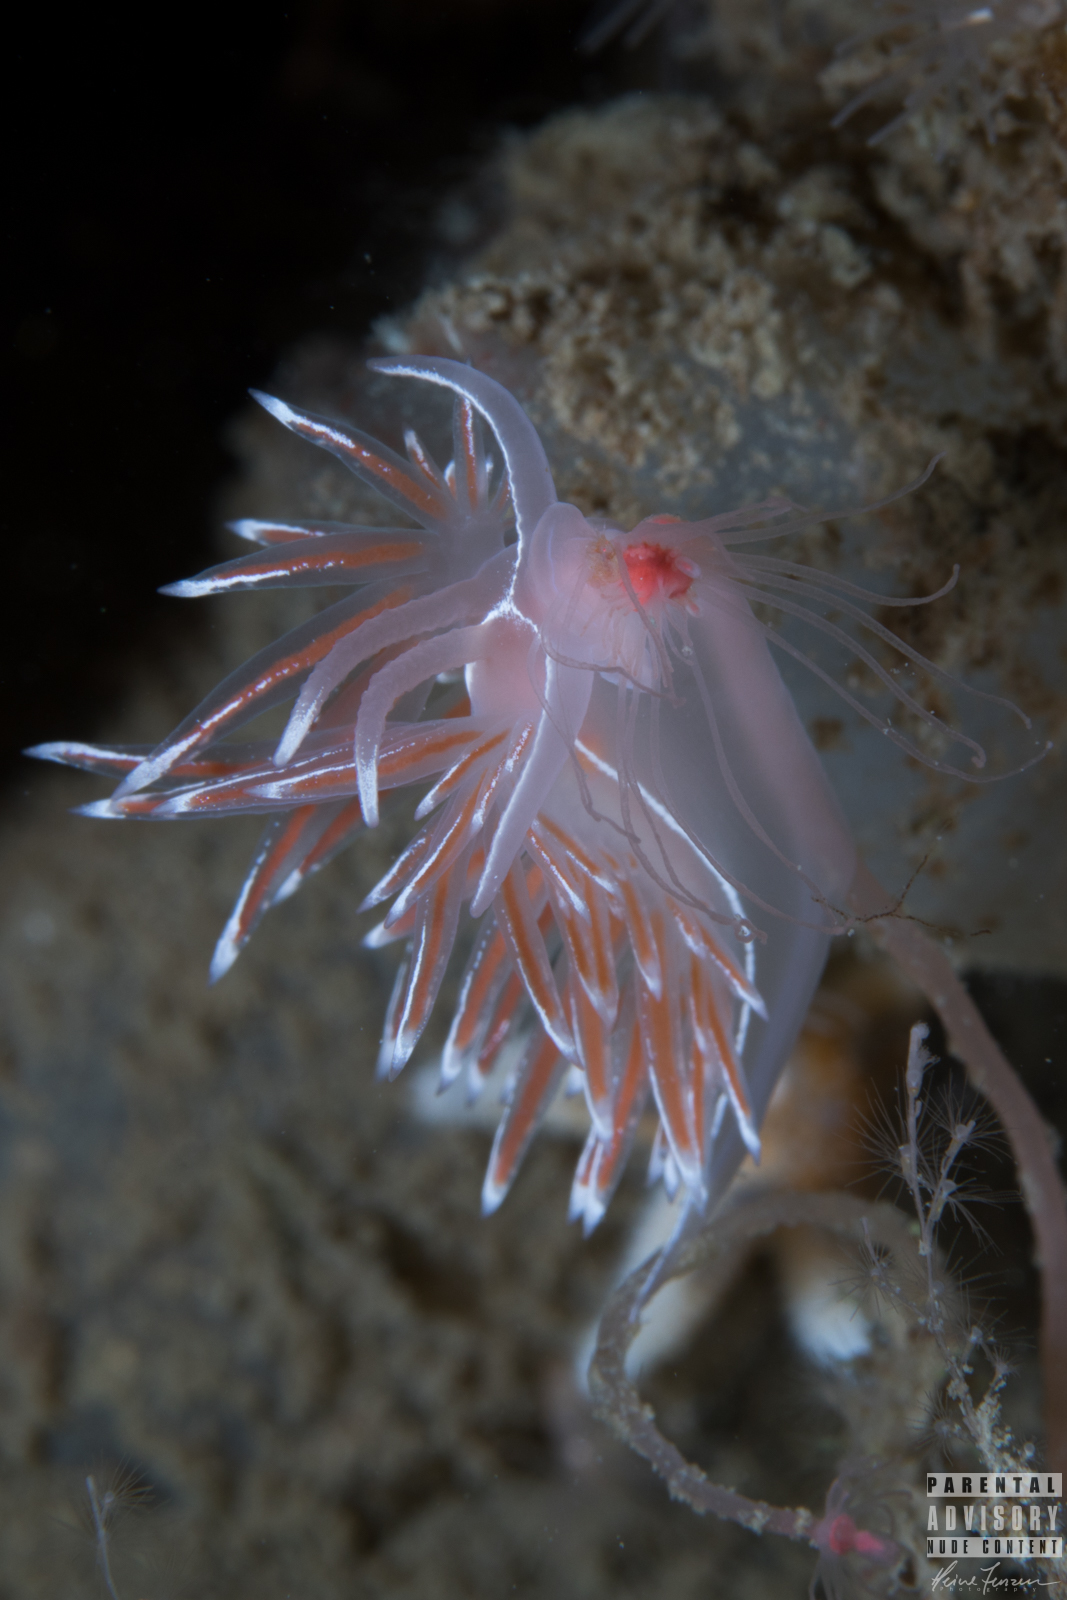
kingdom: Animalia
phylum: Mollusca
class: Gastropoda
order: Nudibranchia
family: Coryphellidae
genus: Coryphella
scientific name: Coryphella lineata
